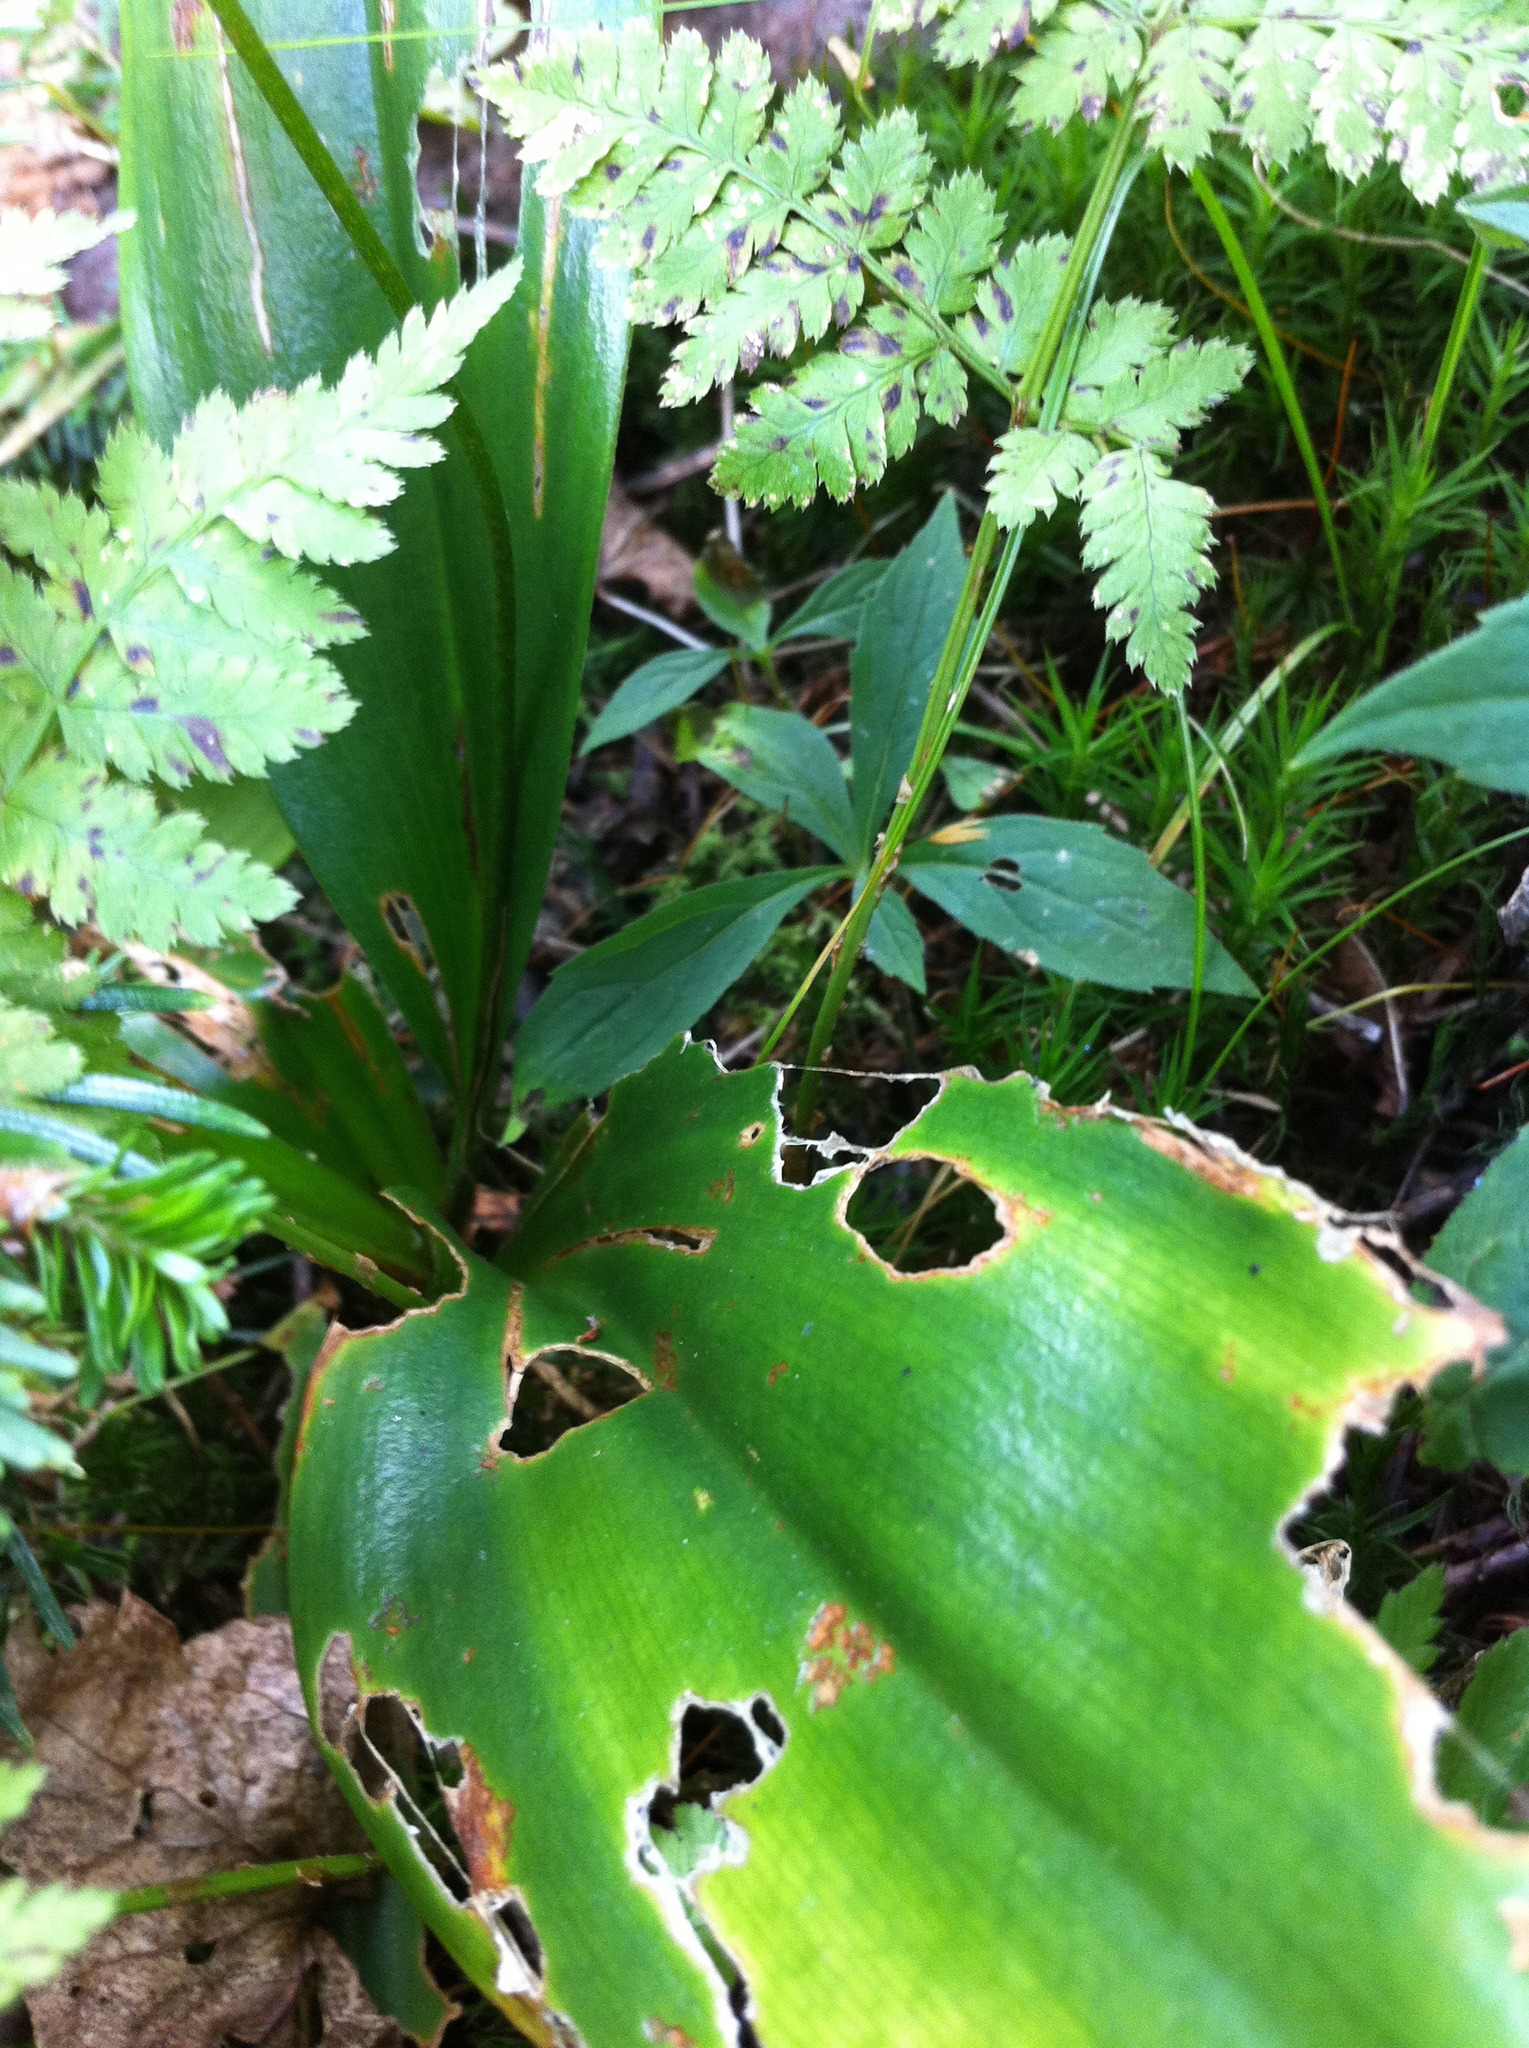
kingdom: Plantae
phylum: Tracheophyta
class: Magnoliopsida
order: Asterales
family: Asteraceae
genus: Oclemena
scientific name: Oclemena acuminata
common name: Mountain aster
